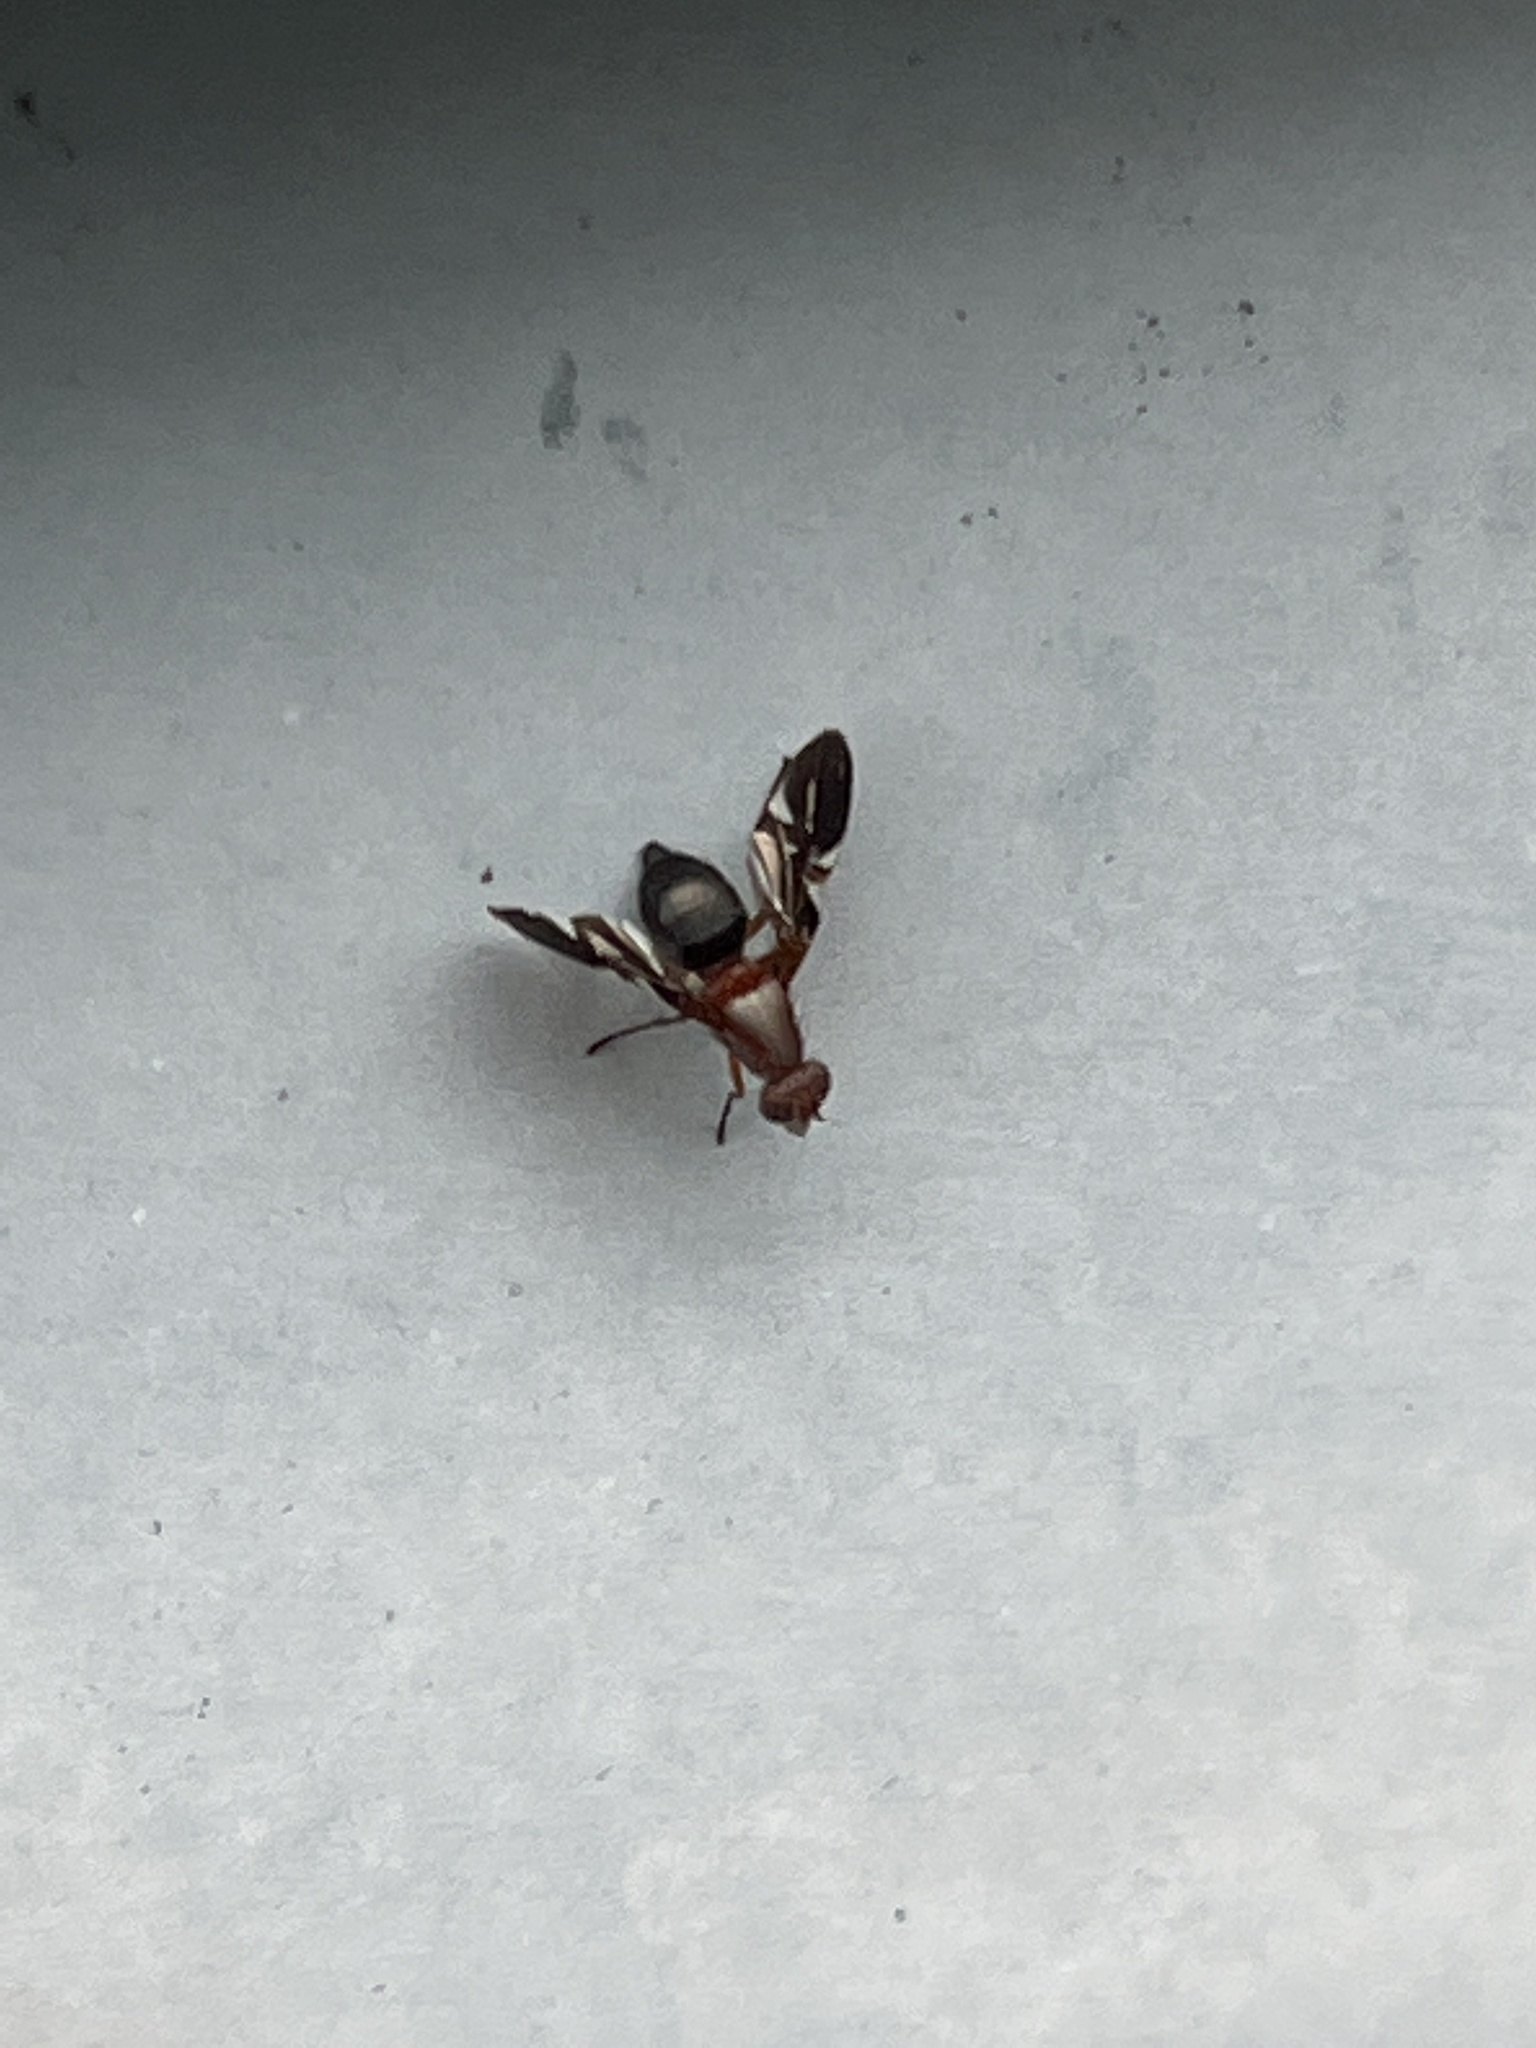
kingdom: Animalia
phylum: Arthropoda
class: Insecta
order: Diptera
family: Ulidiidae
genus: Delphinia
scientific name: Delphinia picta
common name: Common picture-winged fly
